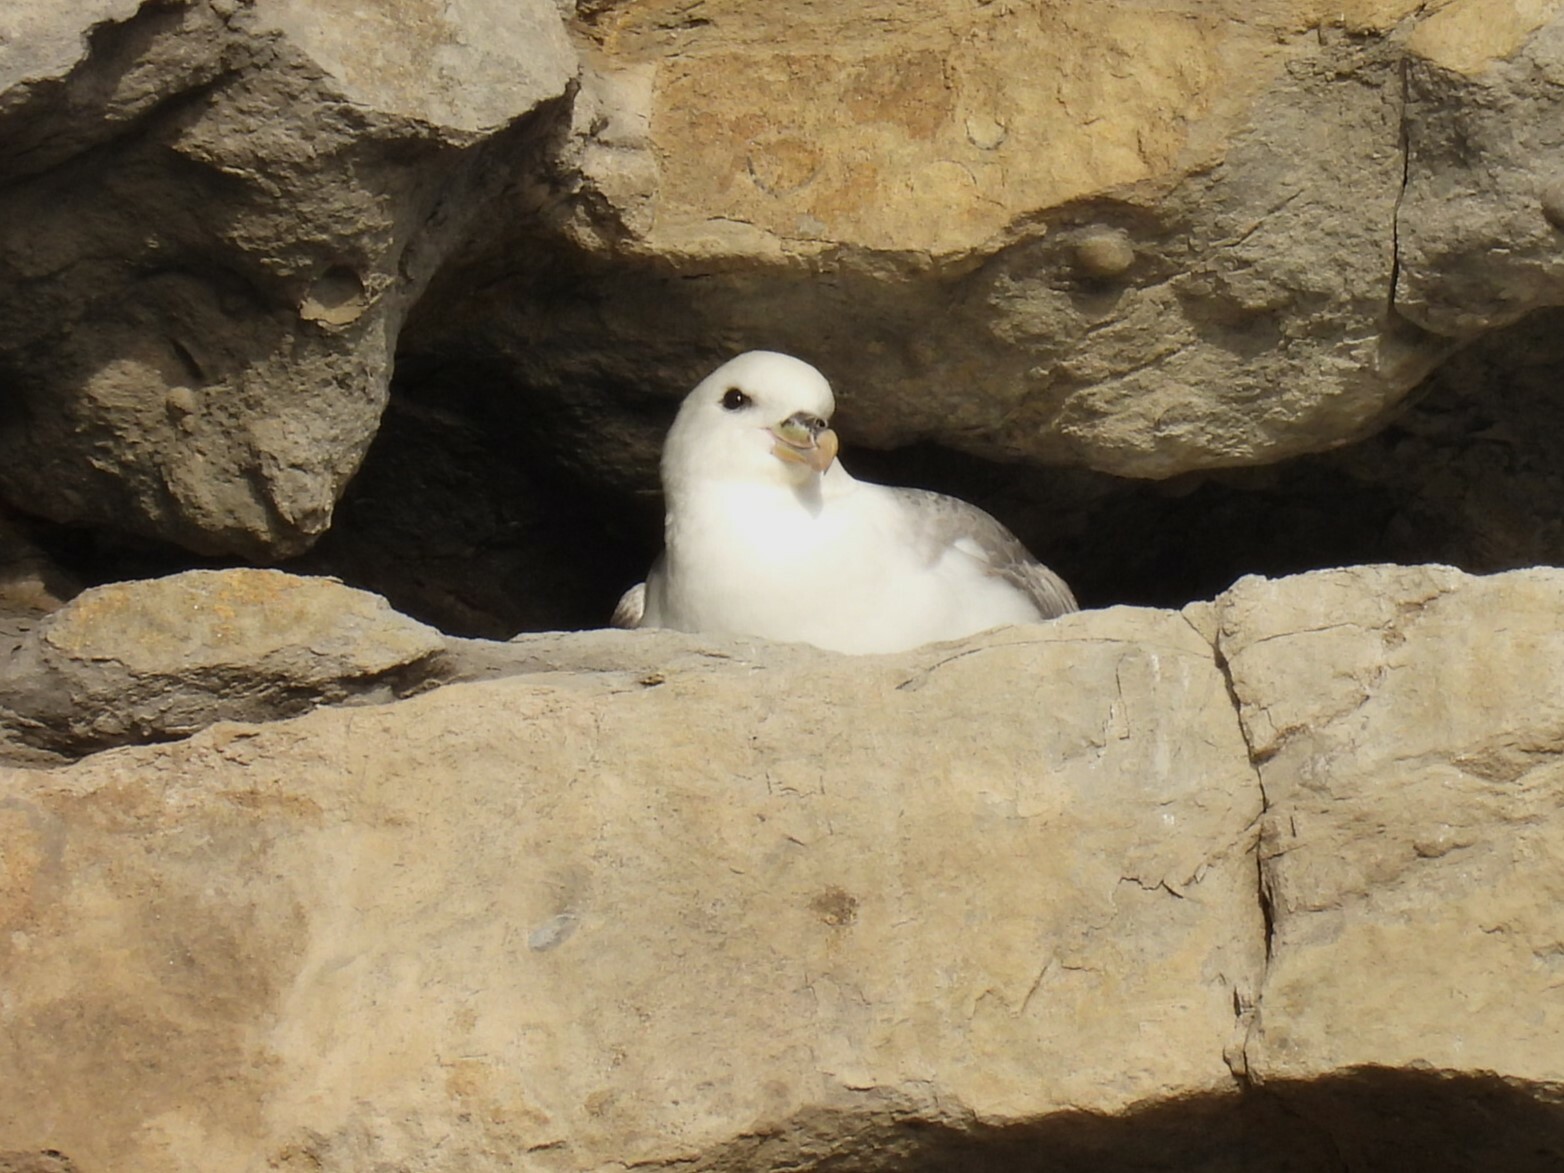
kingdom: Animalia
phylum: Chordata
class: Aves
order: Procellariiformes
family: Procellariidae
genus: Fulmarus
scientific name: Fulmarus glacialis
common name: Northern fulmar
